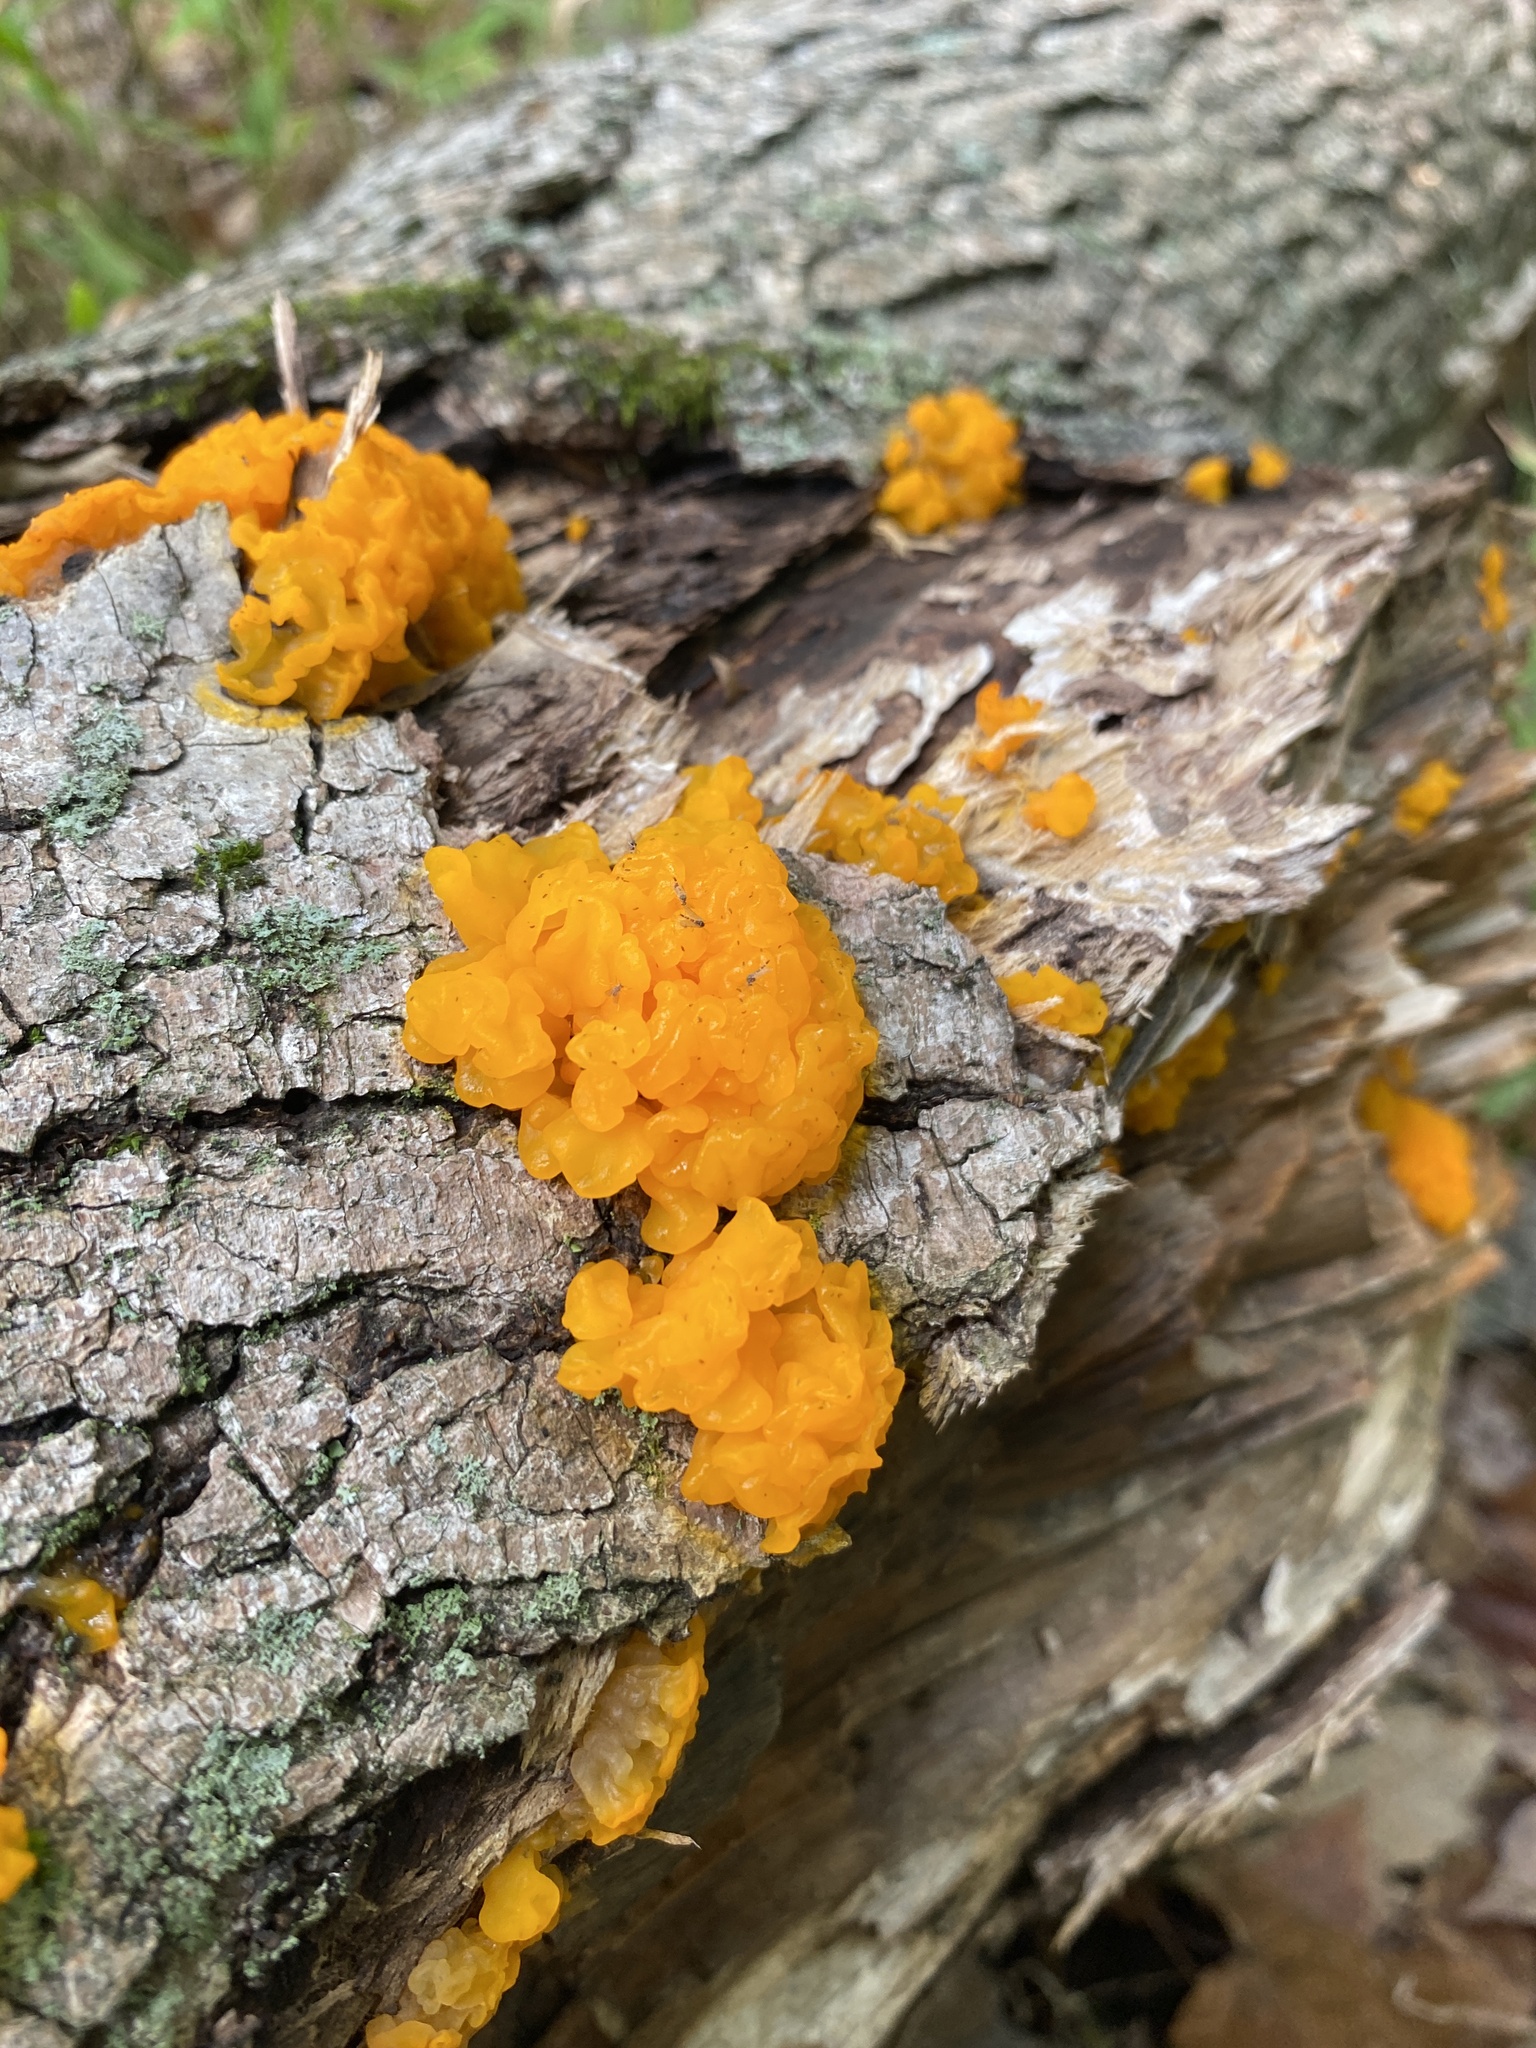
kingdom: Fungi
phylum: Basidiomycota
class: Dacrymycetes
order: Dacrymycetales
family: Dacrymycetaceae
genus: Dacrymyces
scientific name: Dacrymyces chrysospermus
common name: Orange jelly spot
